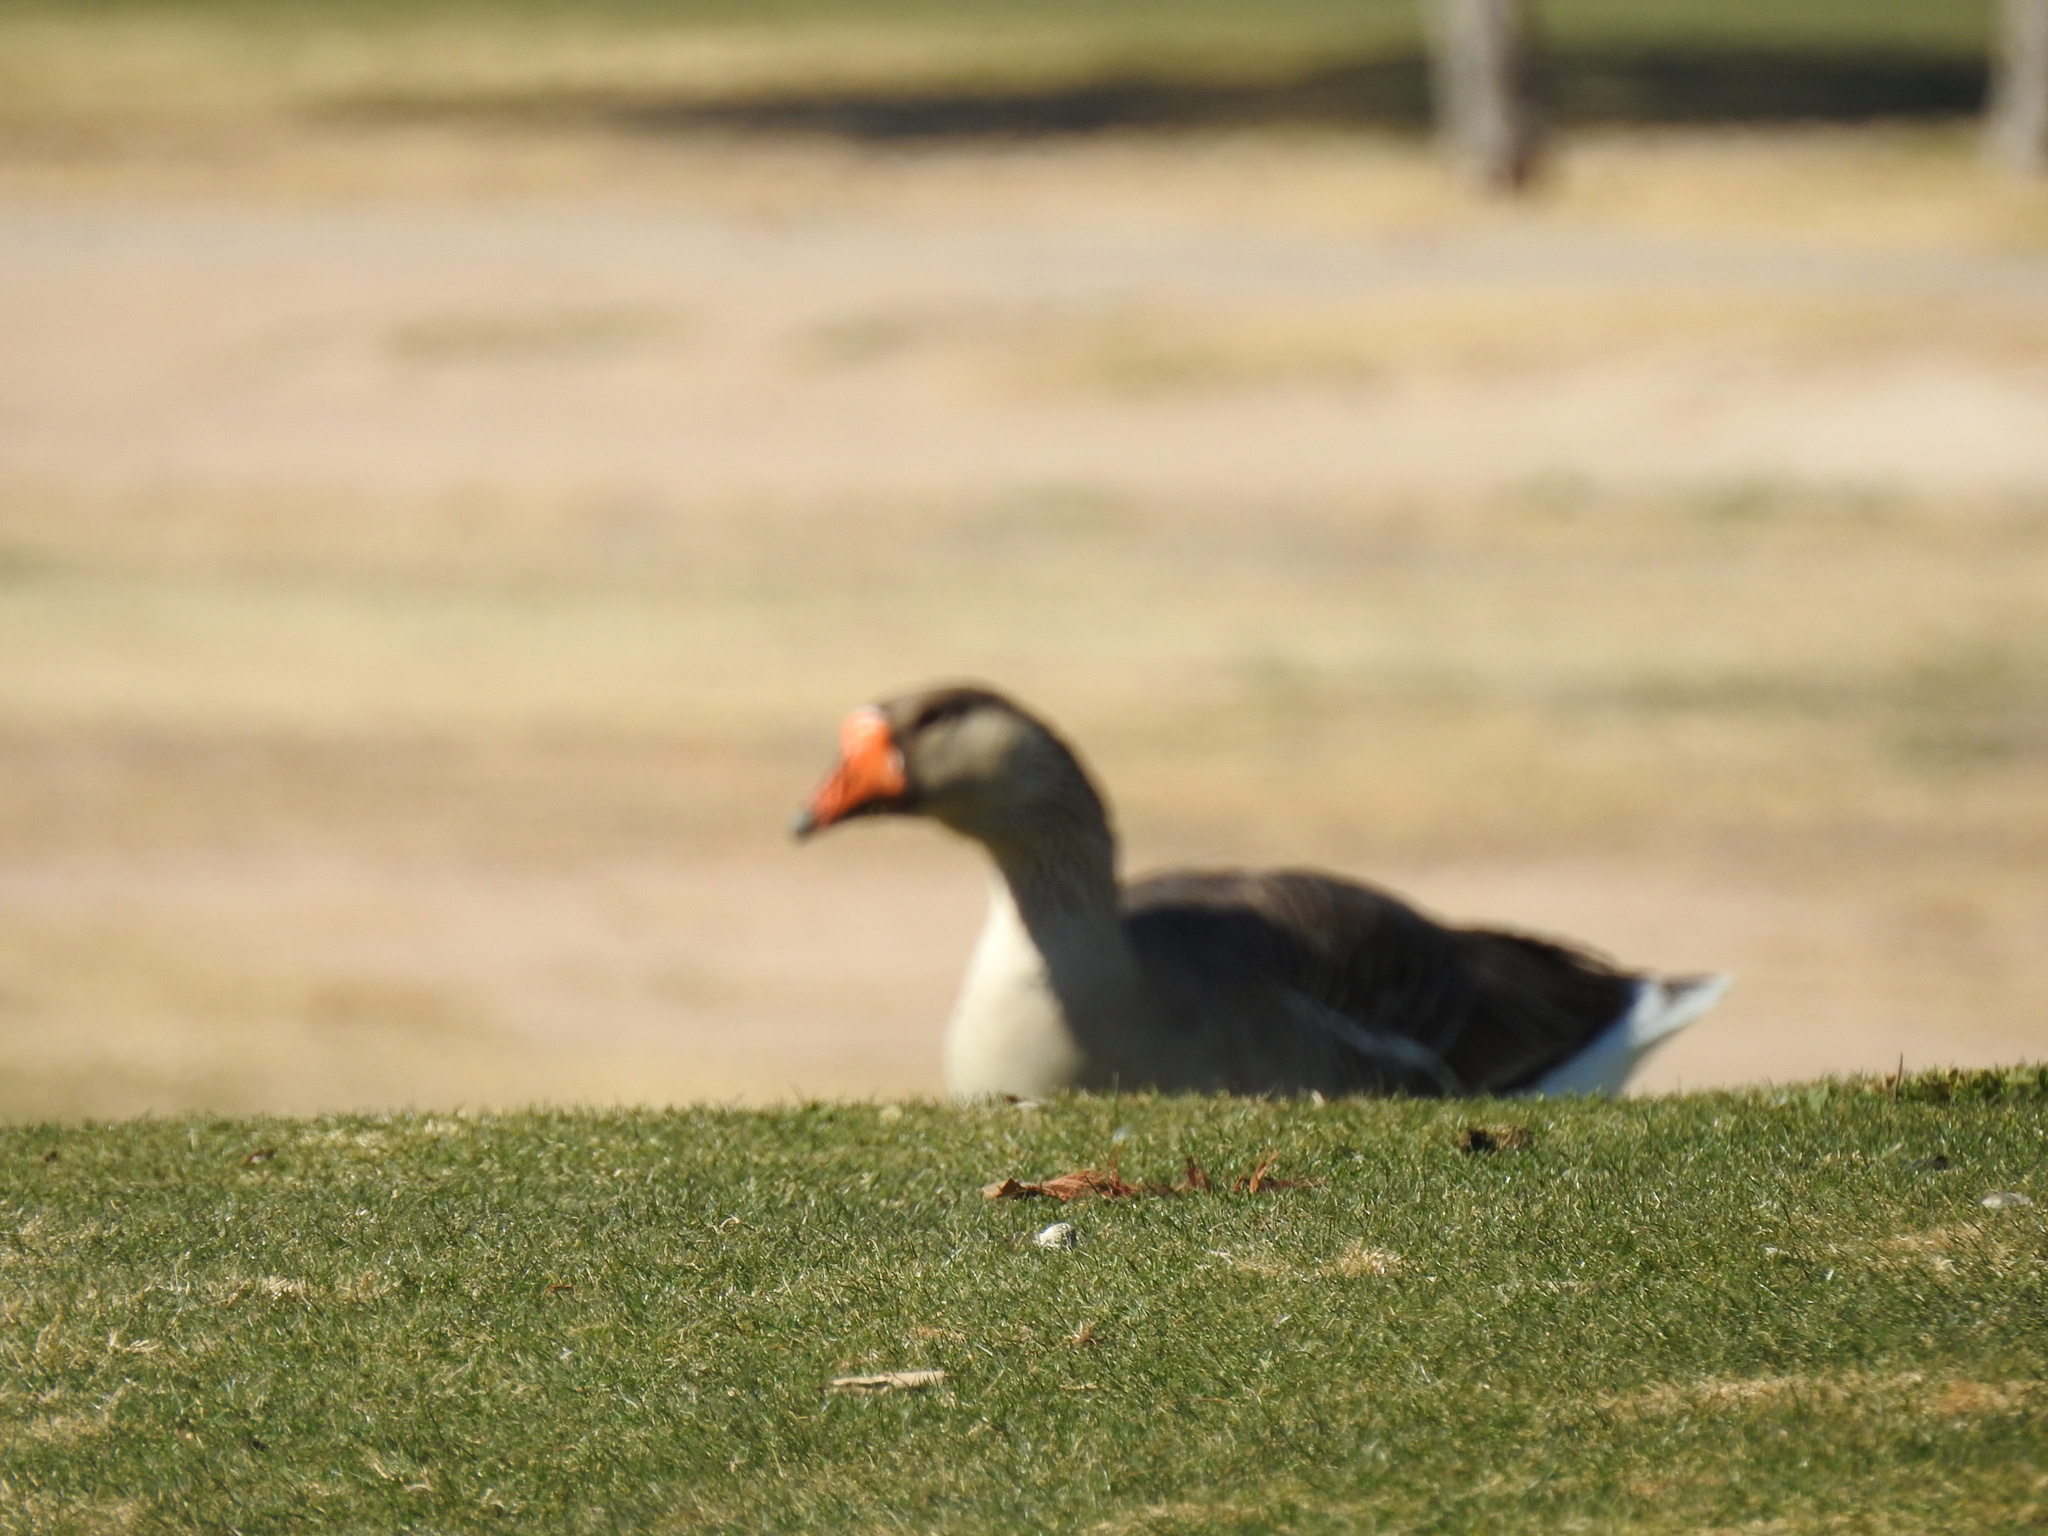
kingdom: Animalia
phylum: Chordata
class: Aves
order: Anseriformes
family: Anatidae
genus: Anser
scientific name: Anser
